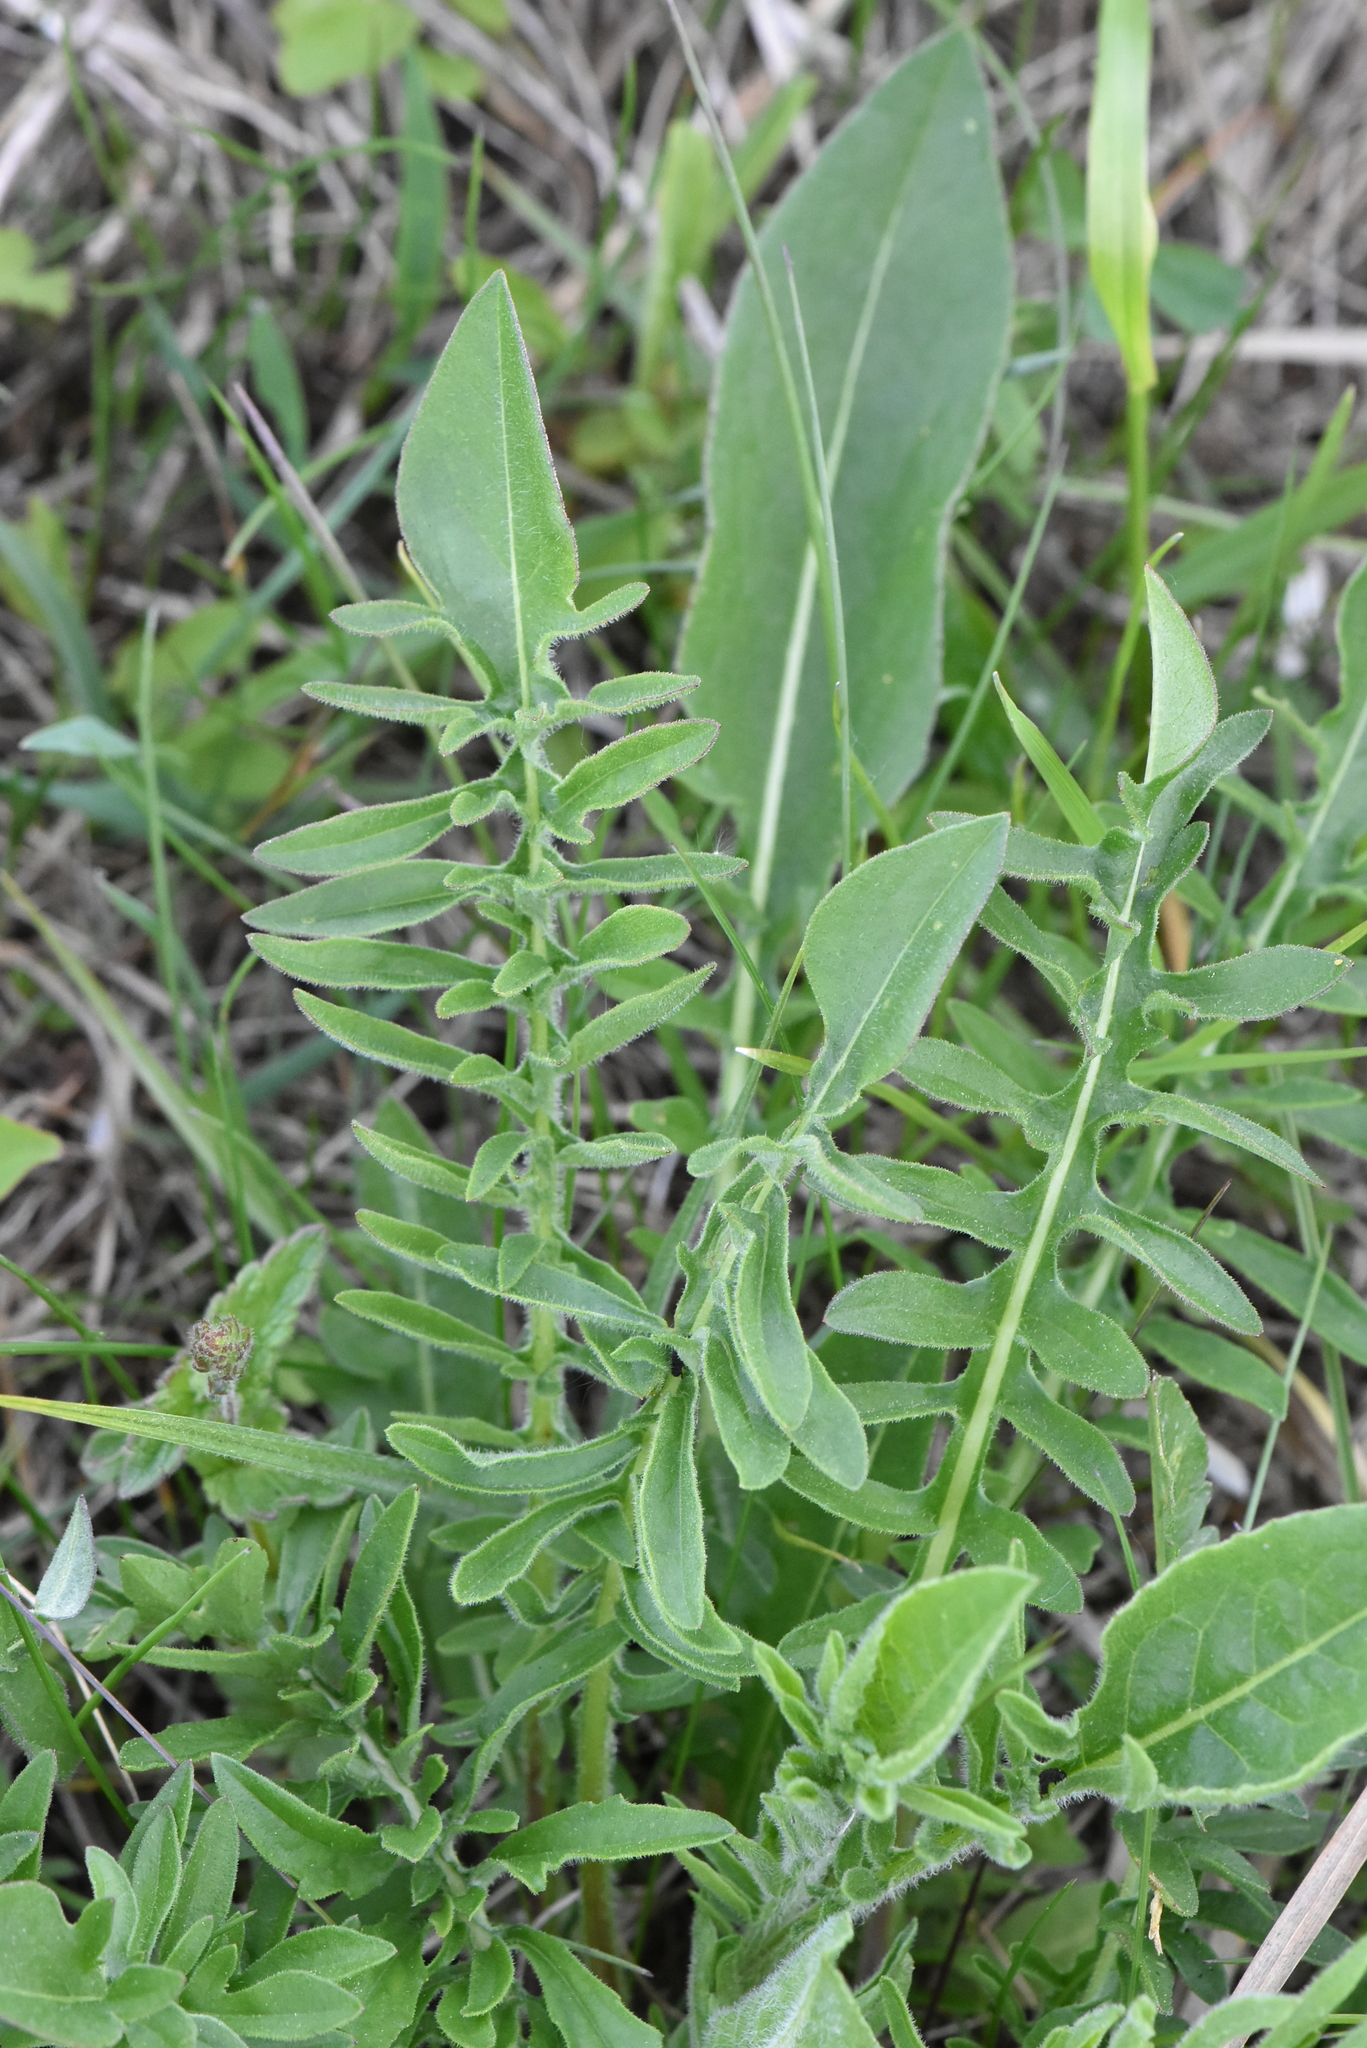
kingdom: Plantae
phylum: Tracheophyta
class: Magnoliopsida
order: Asterales
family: Asteraceae
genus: Centaurea
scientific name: Centaurea scabiosa
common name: Greater knapweed
